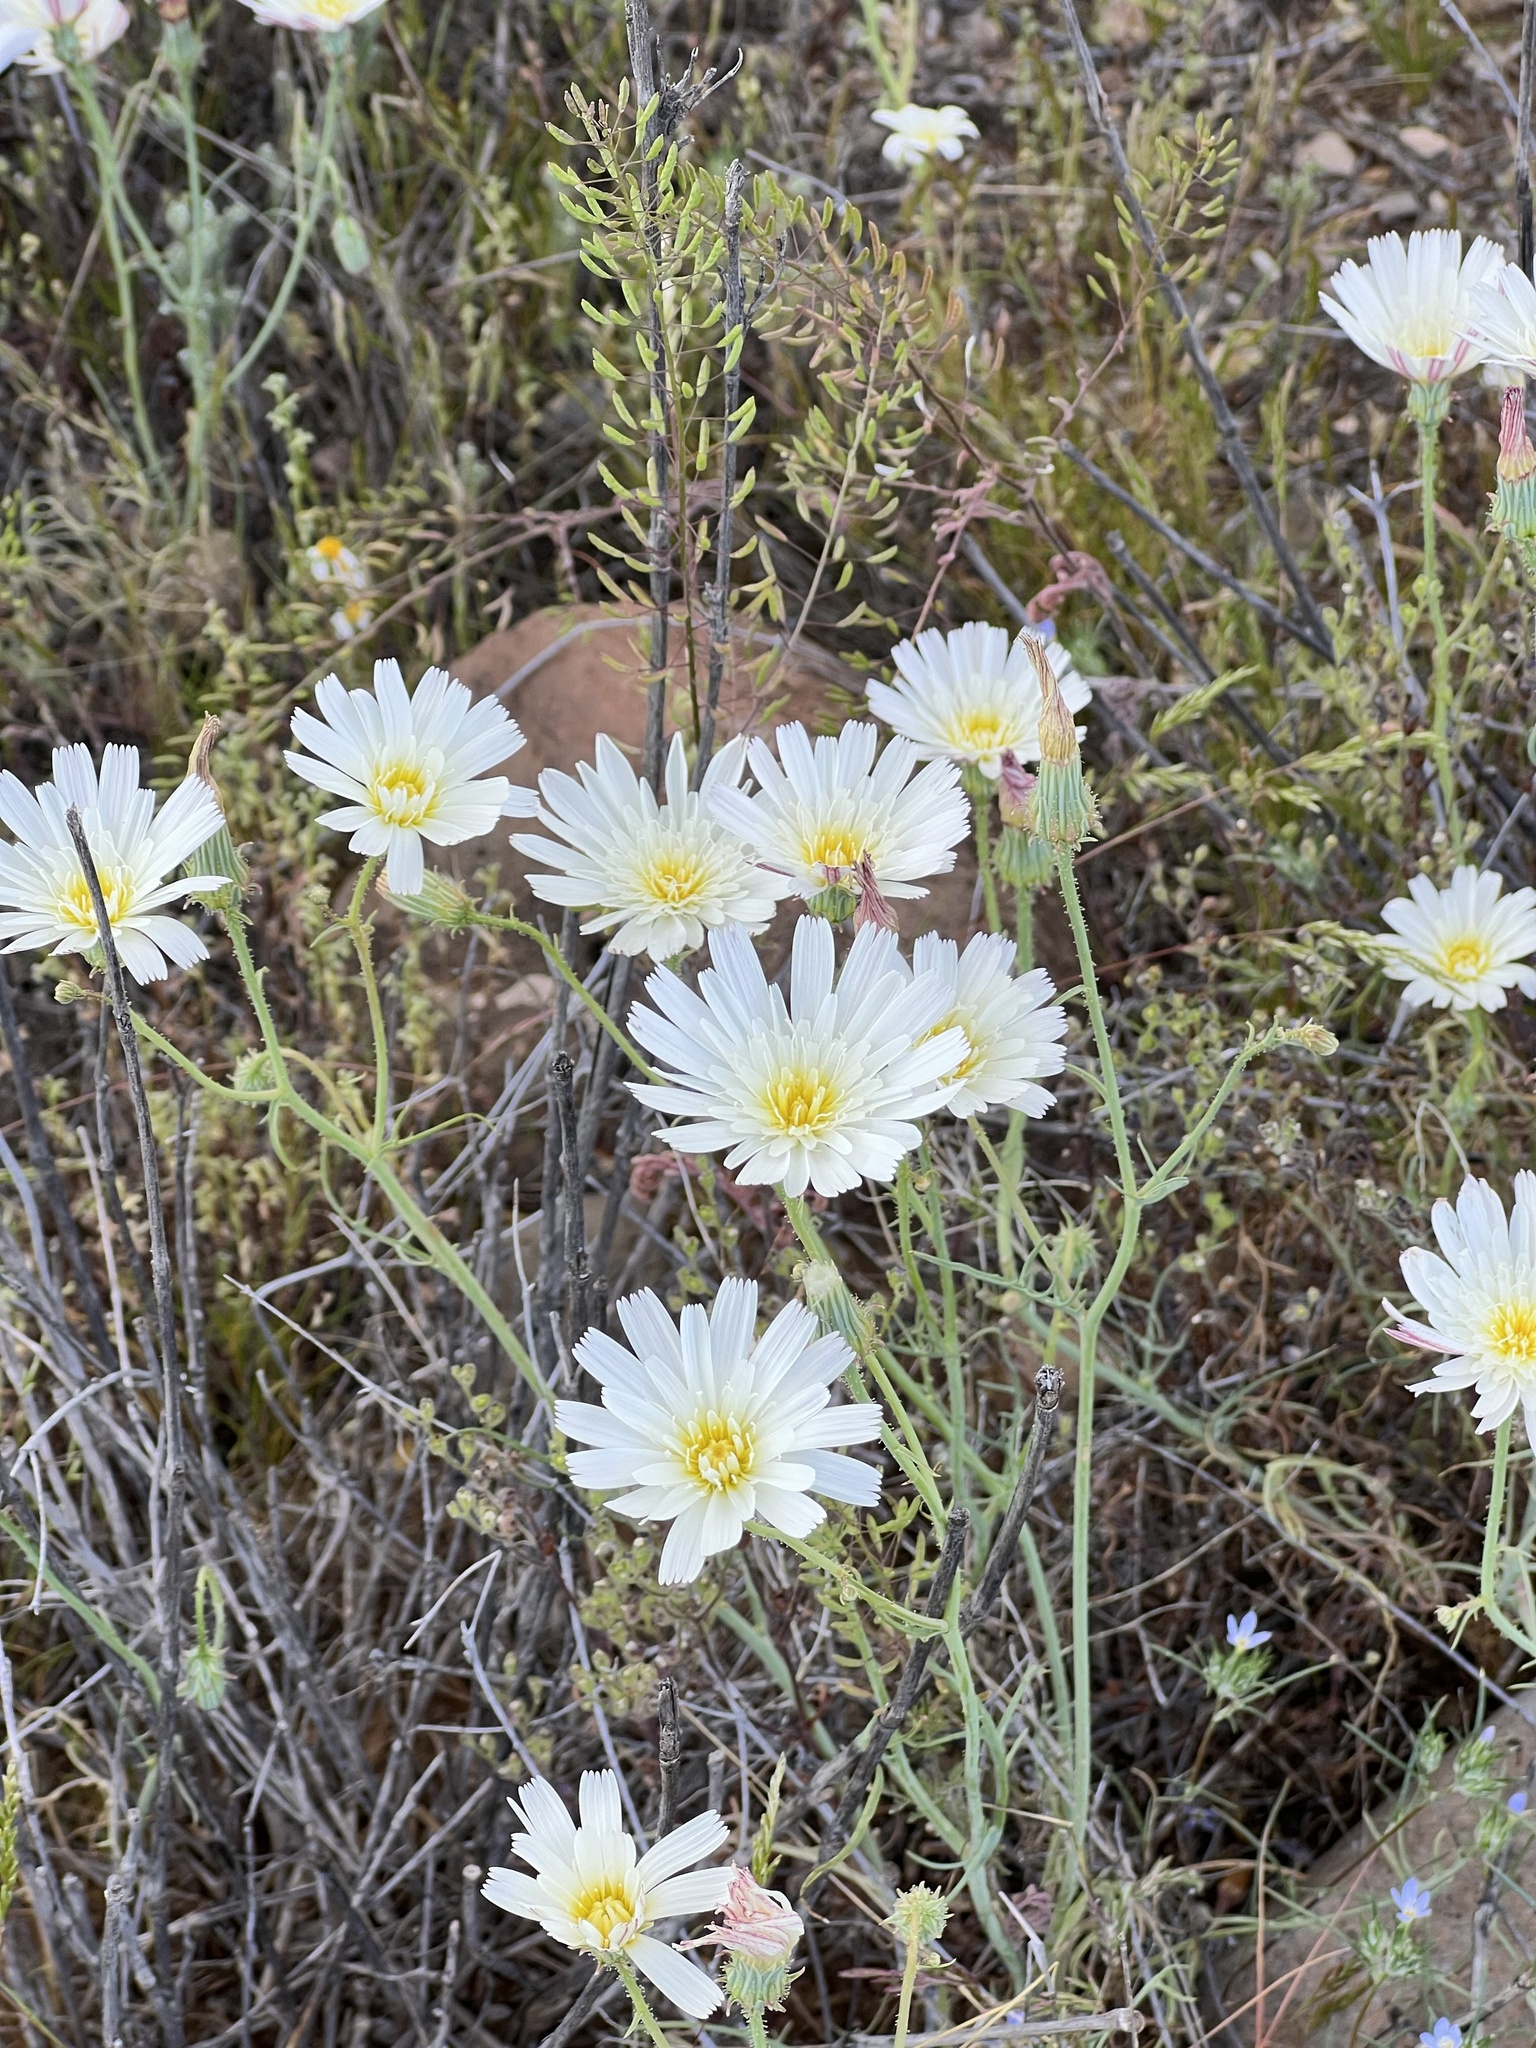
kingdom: Plantae
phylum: Tracheophyta
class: Magnoliopsida
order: Asterales
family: Asteraceae
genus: Calycoseris
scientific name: Calycoseris wrightii
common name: White tackstem
